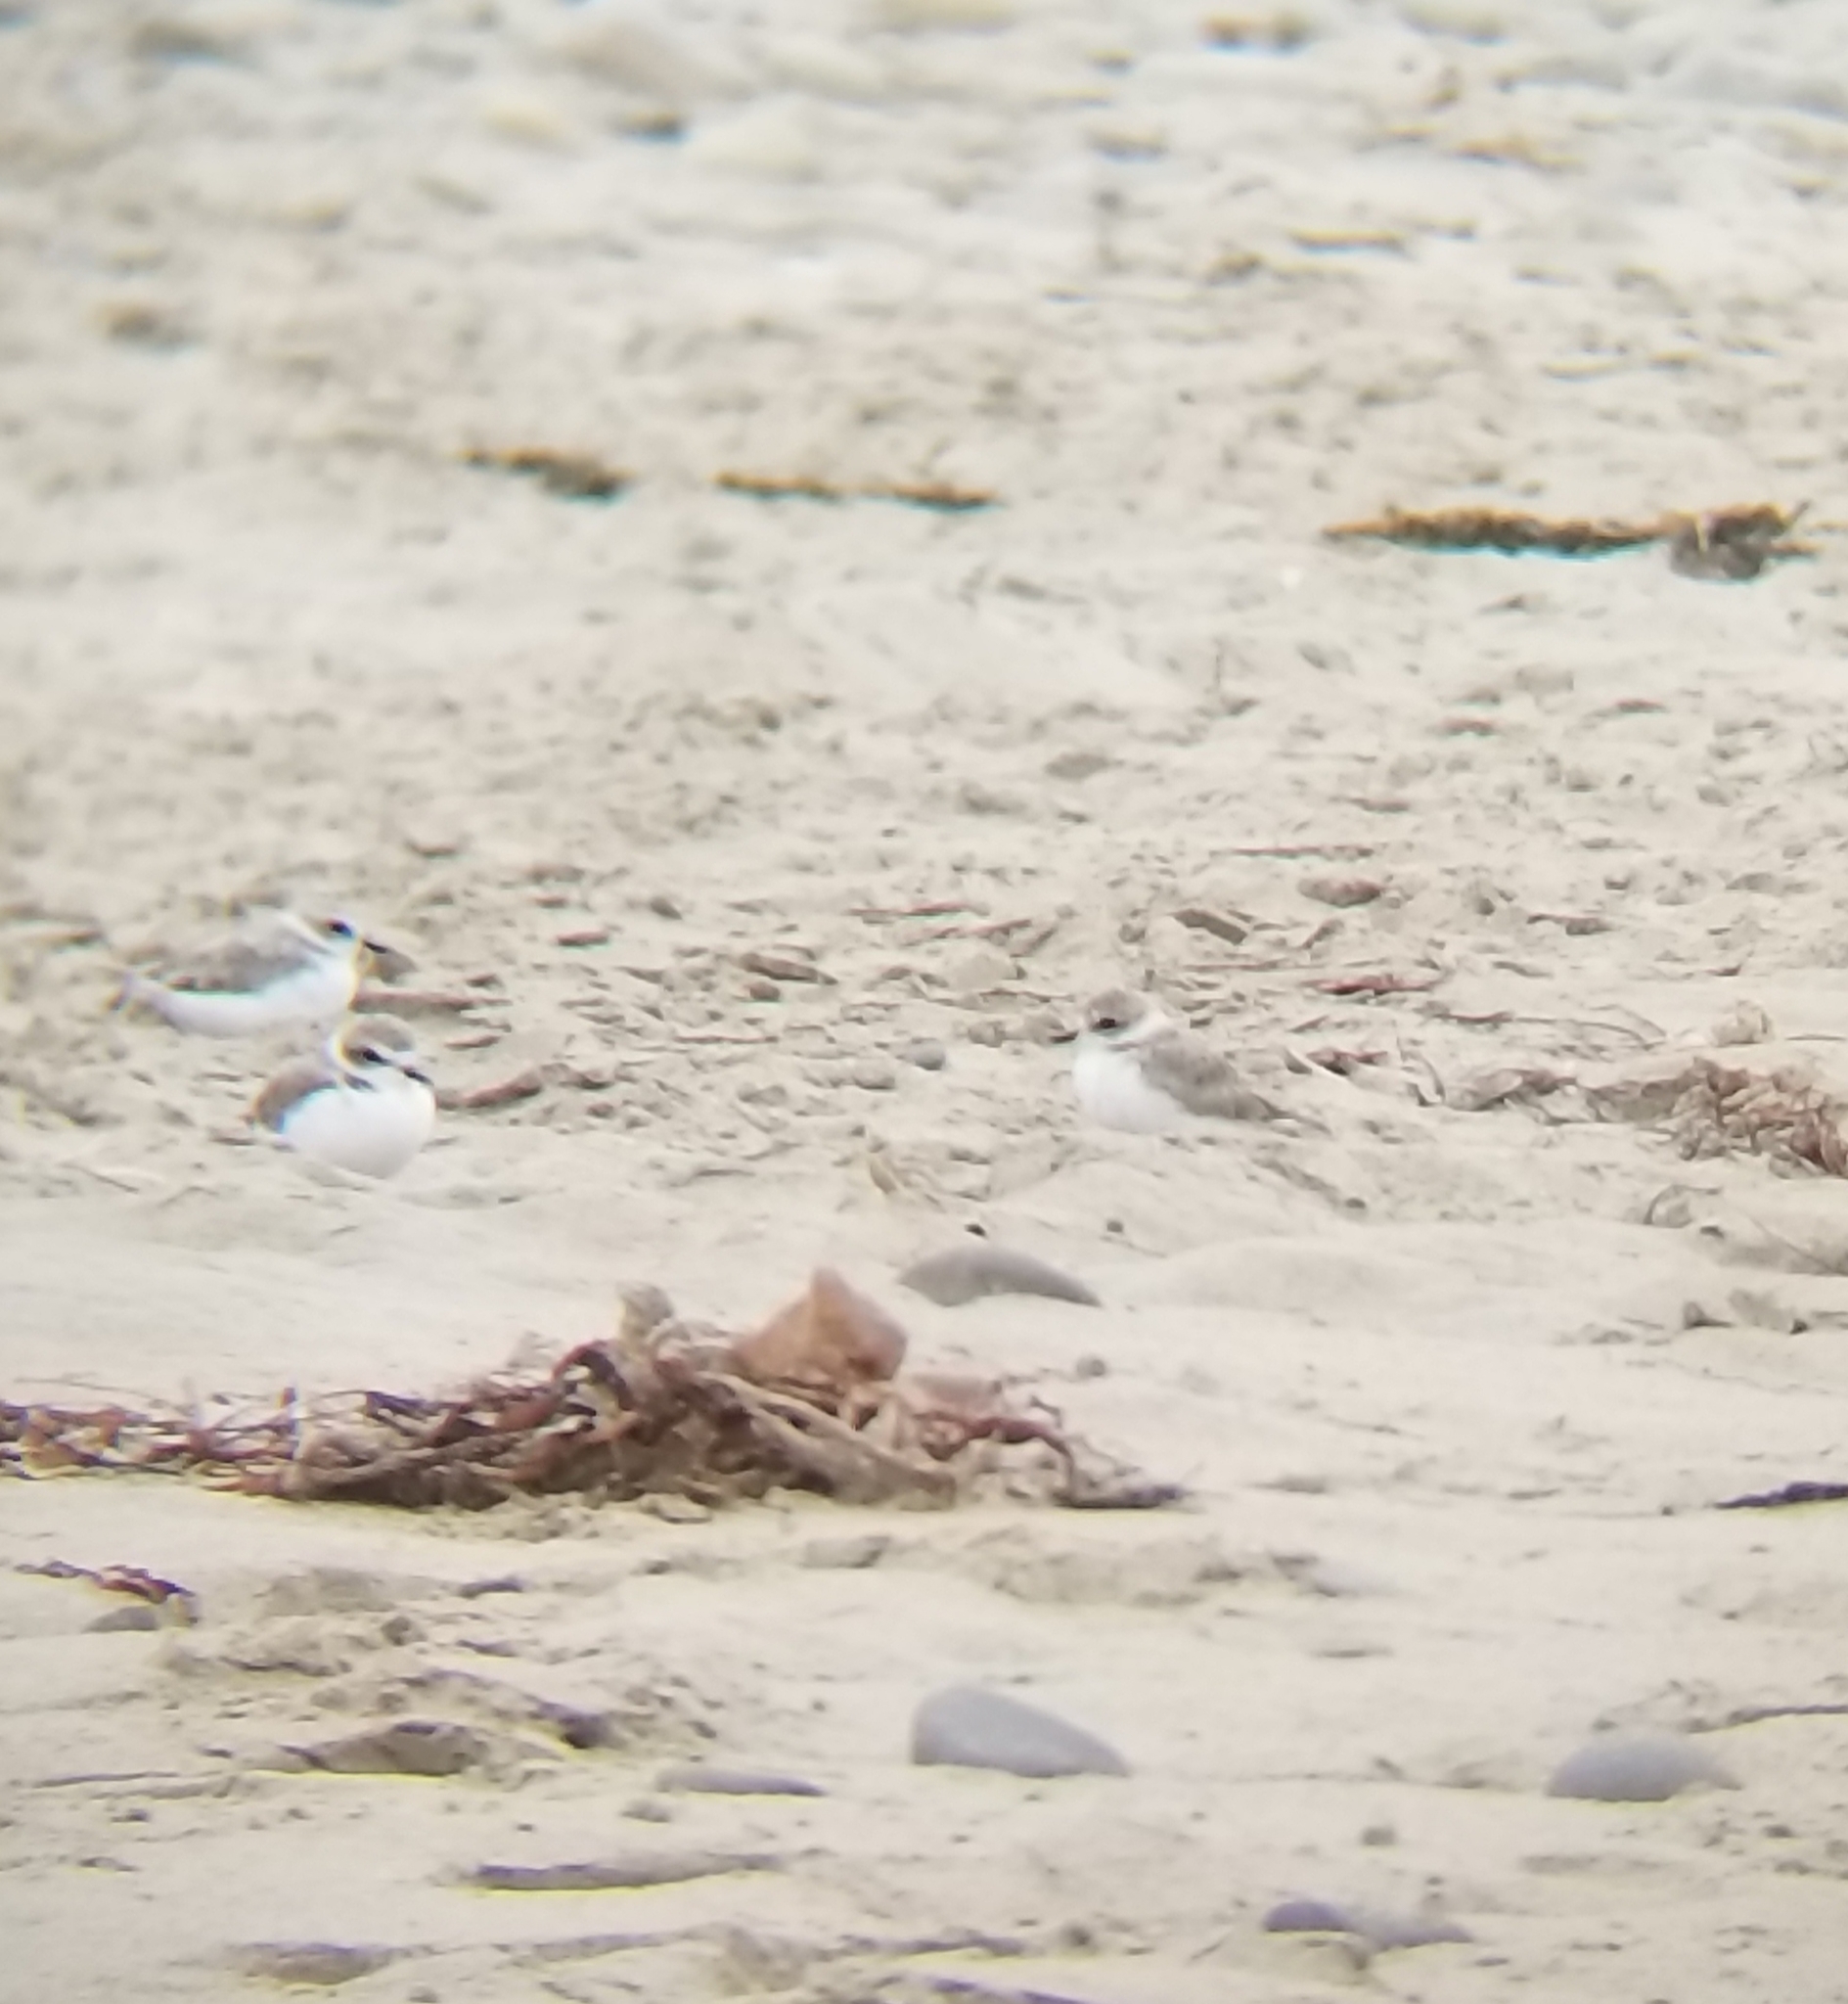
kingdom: Animalia
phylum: Chordata
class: Aves
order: Charadriiformes
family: Charadriidae
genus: Anarhynchus
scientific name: Anarhynchus
